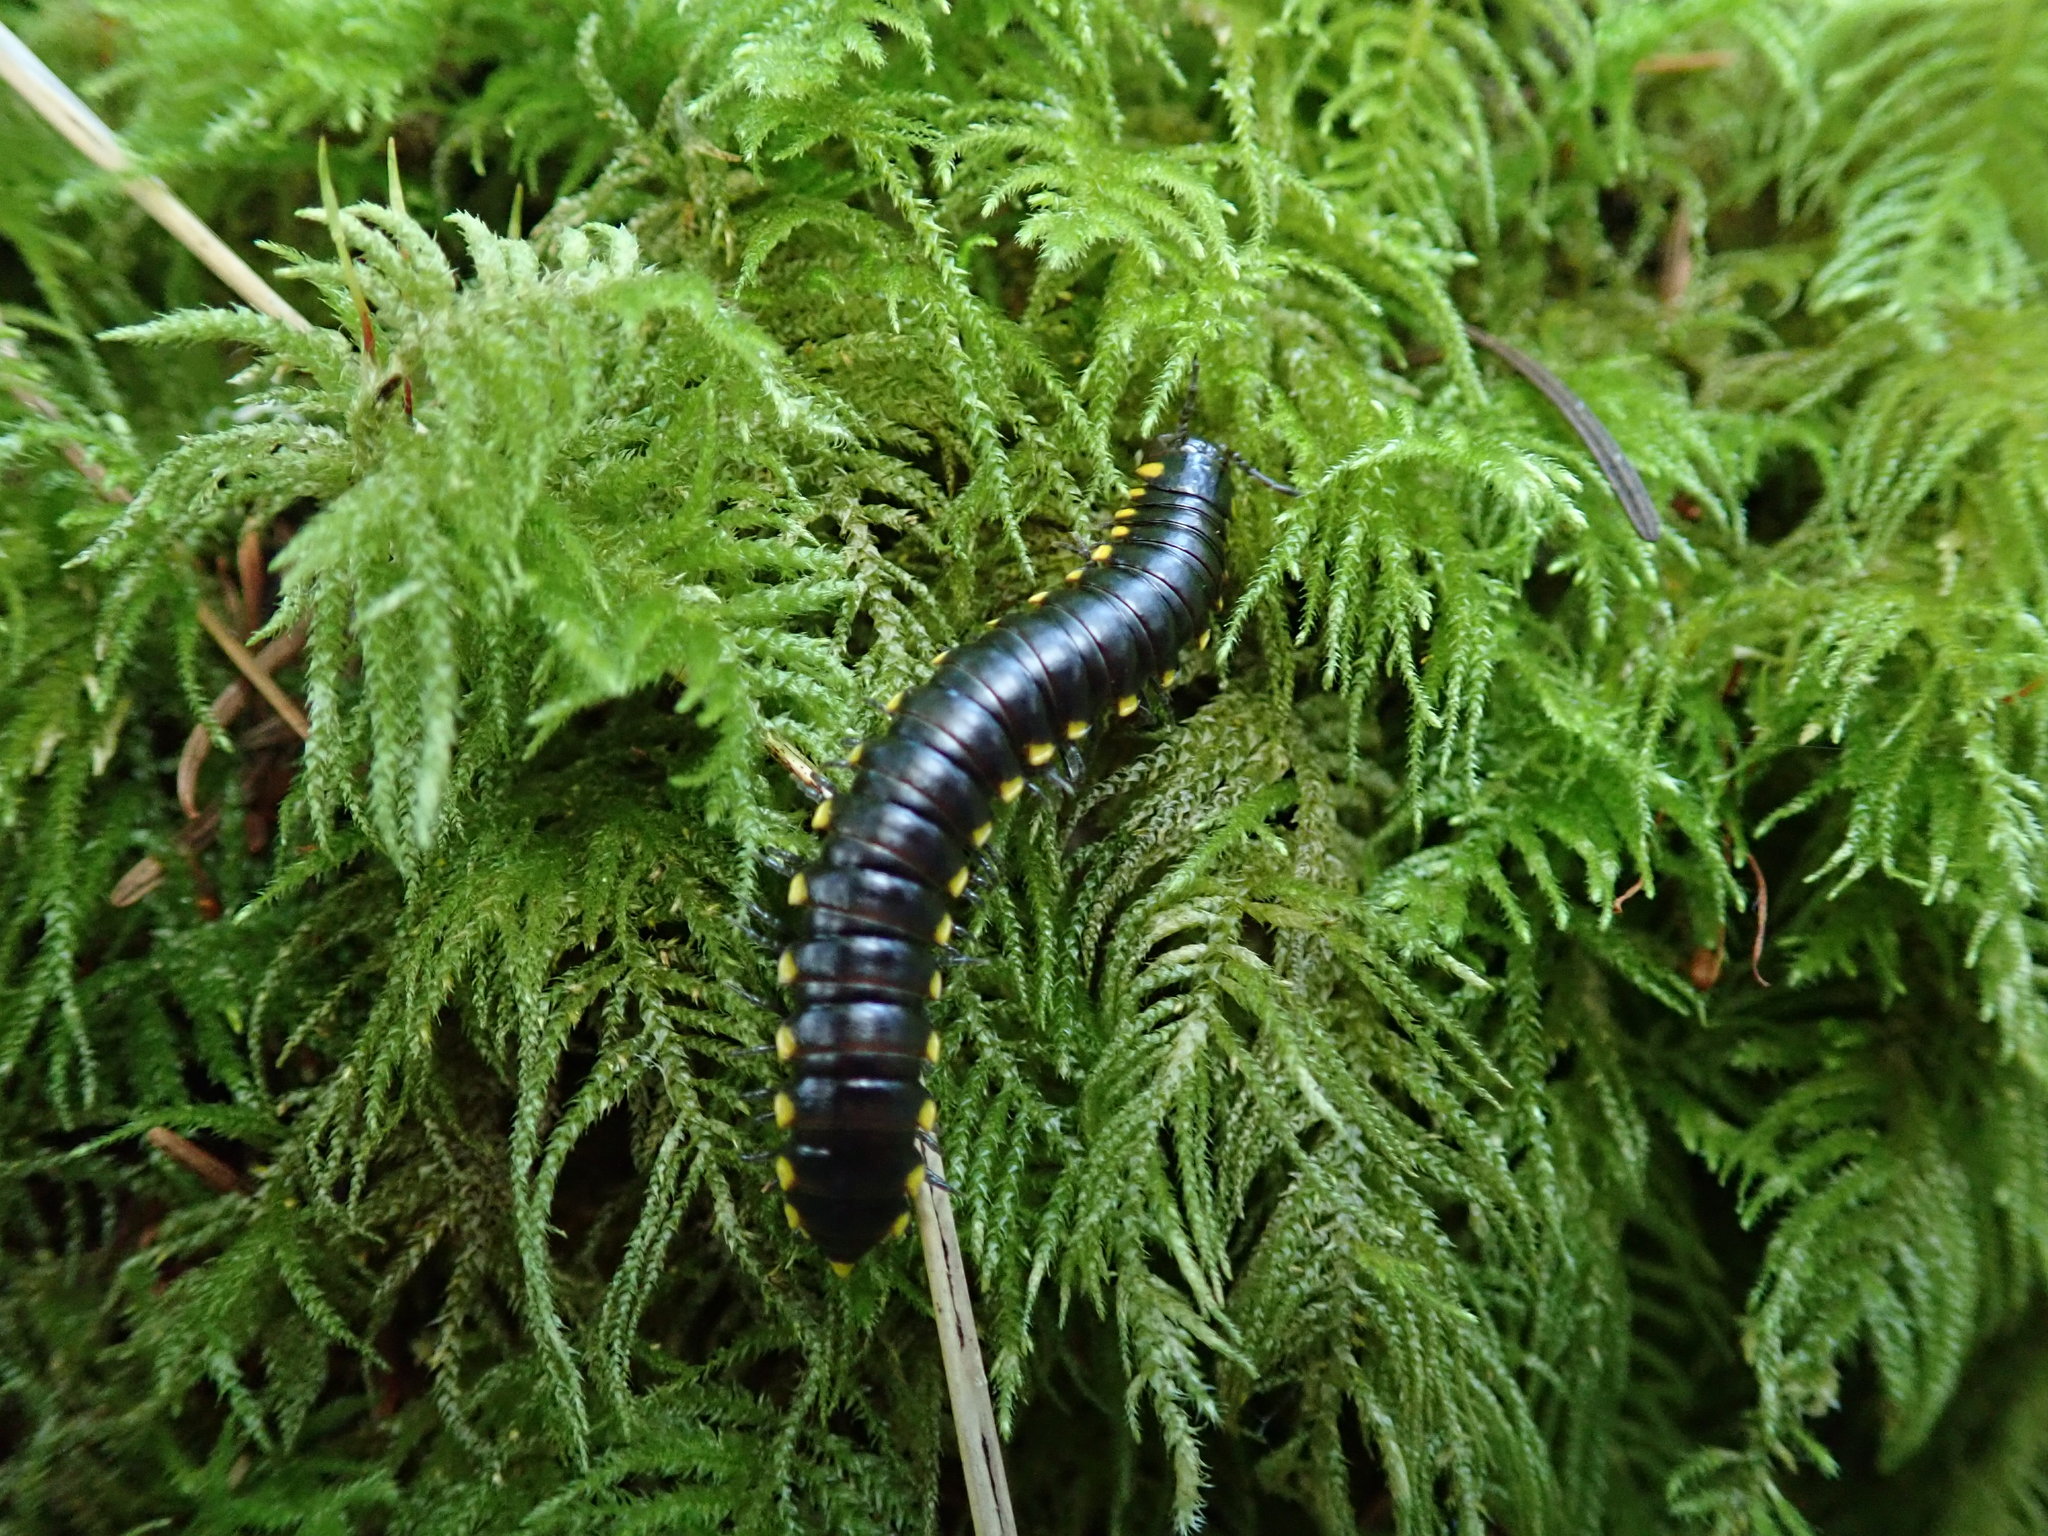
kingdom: Animalia
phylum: Arthropoda
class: Diplopoda
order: Polydesmida
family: Xystodesmidae
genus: Harpaphe
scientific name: Harpaphe haydeniana
